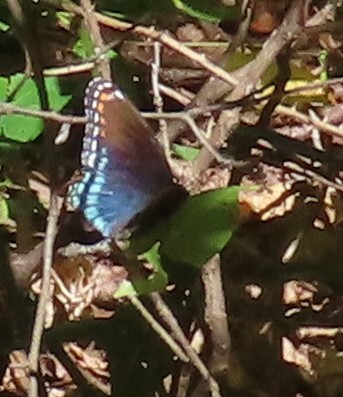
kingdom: Animalia
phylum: Arthropoda
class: Insecta
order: Lepidoptera
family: Nymphalidae
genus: Limenitis
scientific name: Limenitis astyanax
